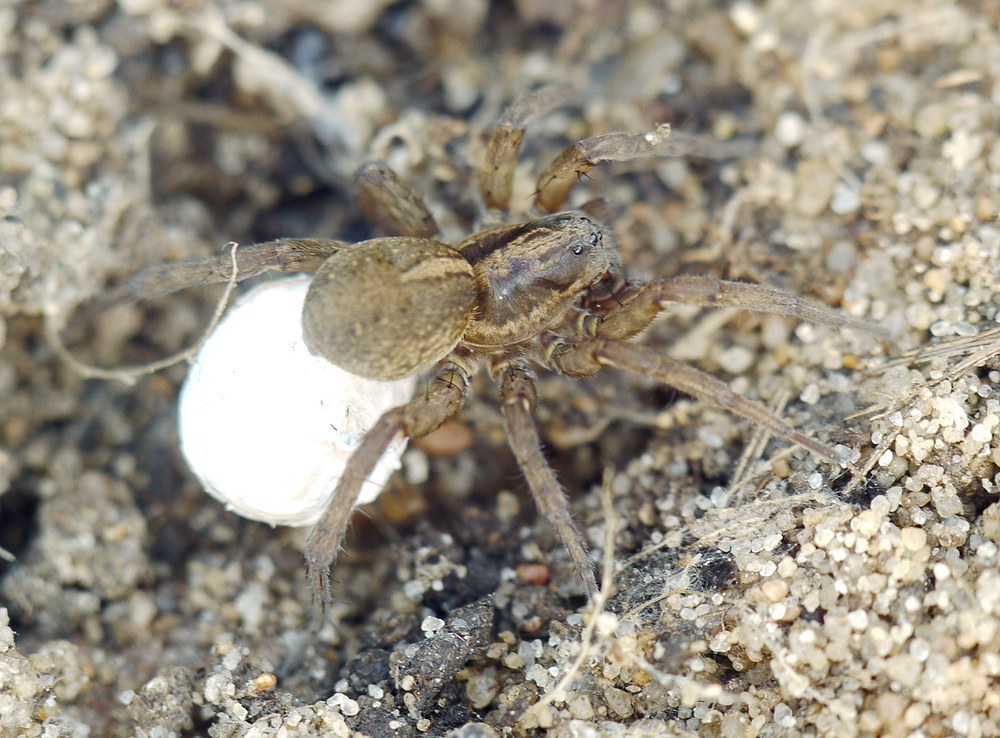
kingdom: Animalia
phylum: Arthropoda
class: Arachnida
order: Araneae
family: Lycosidae
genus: Trochosa
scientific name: Trochosa
